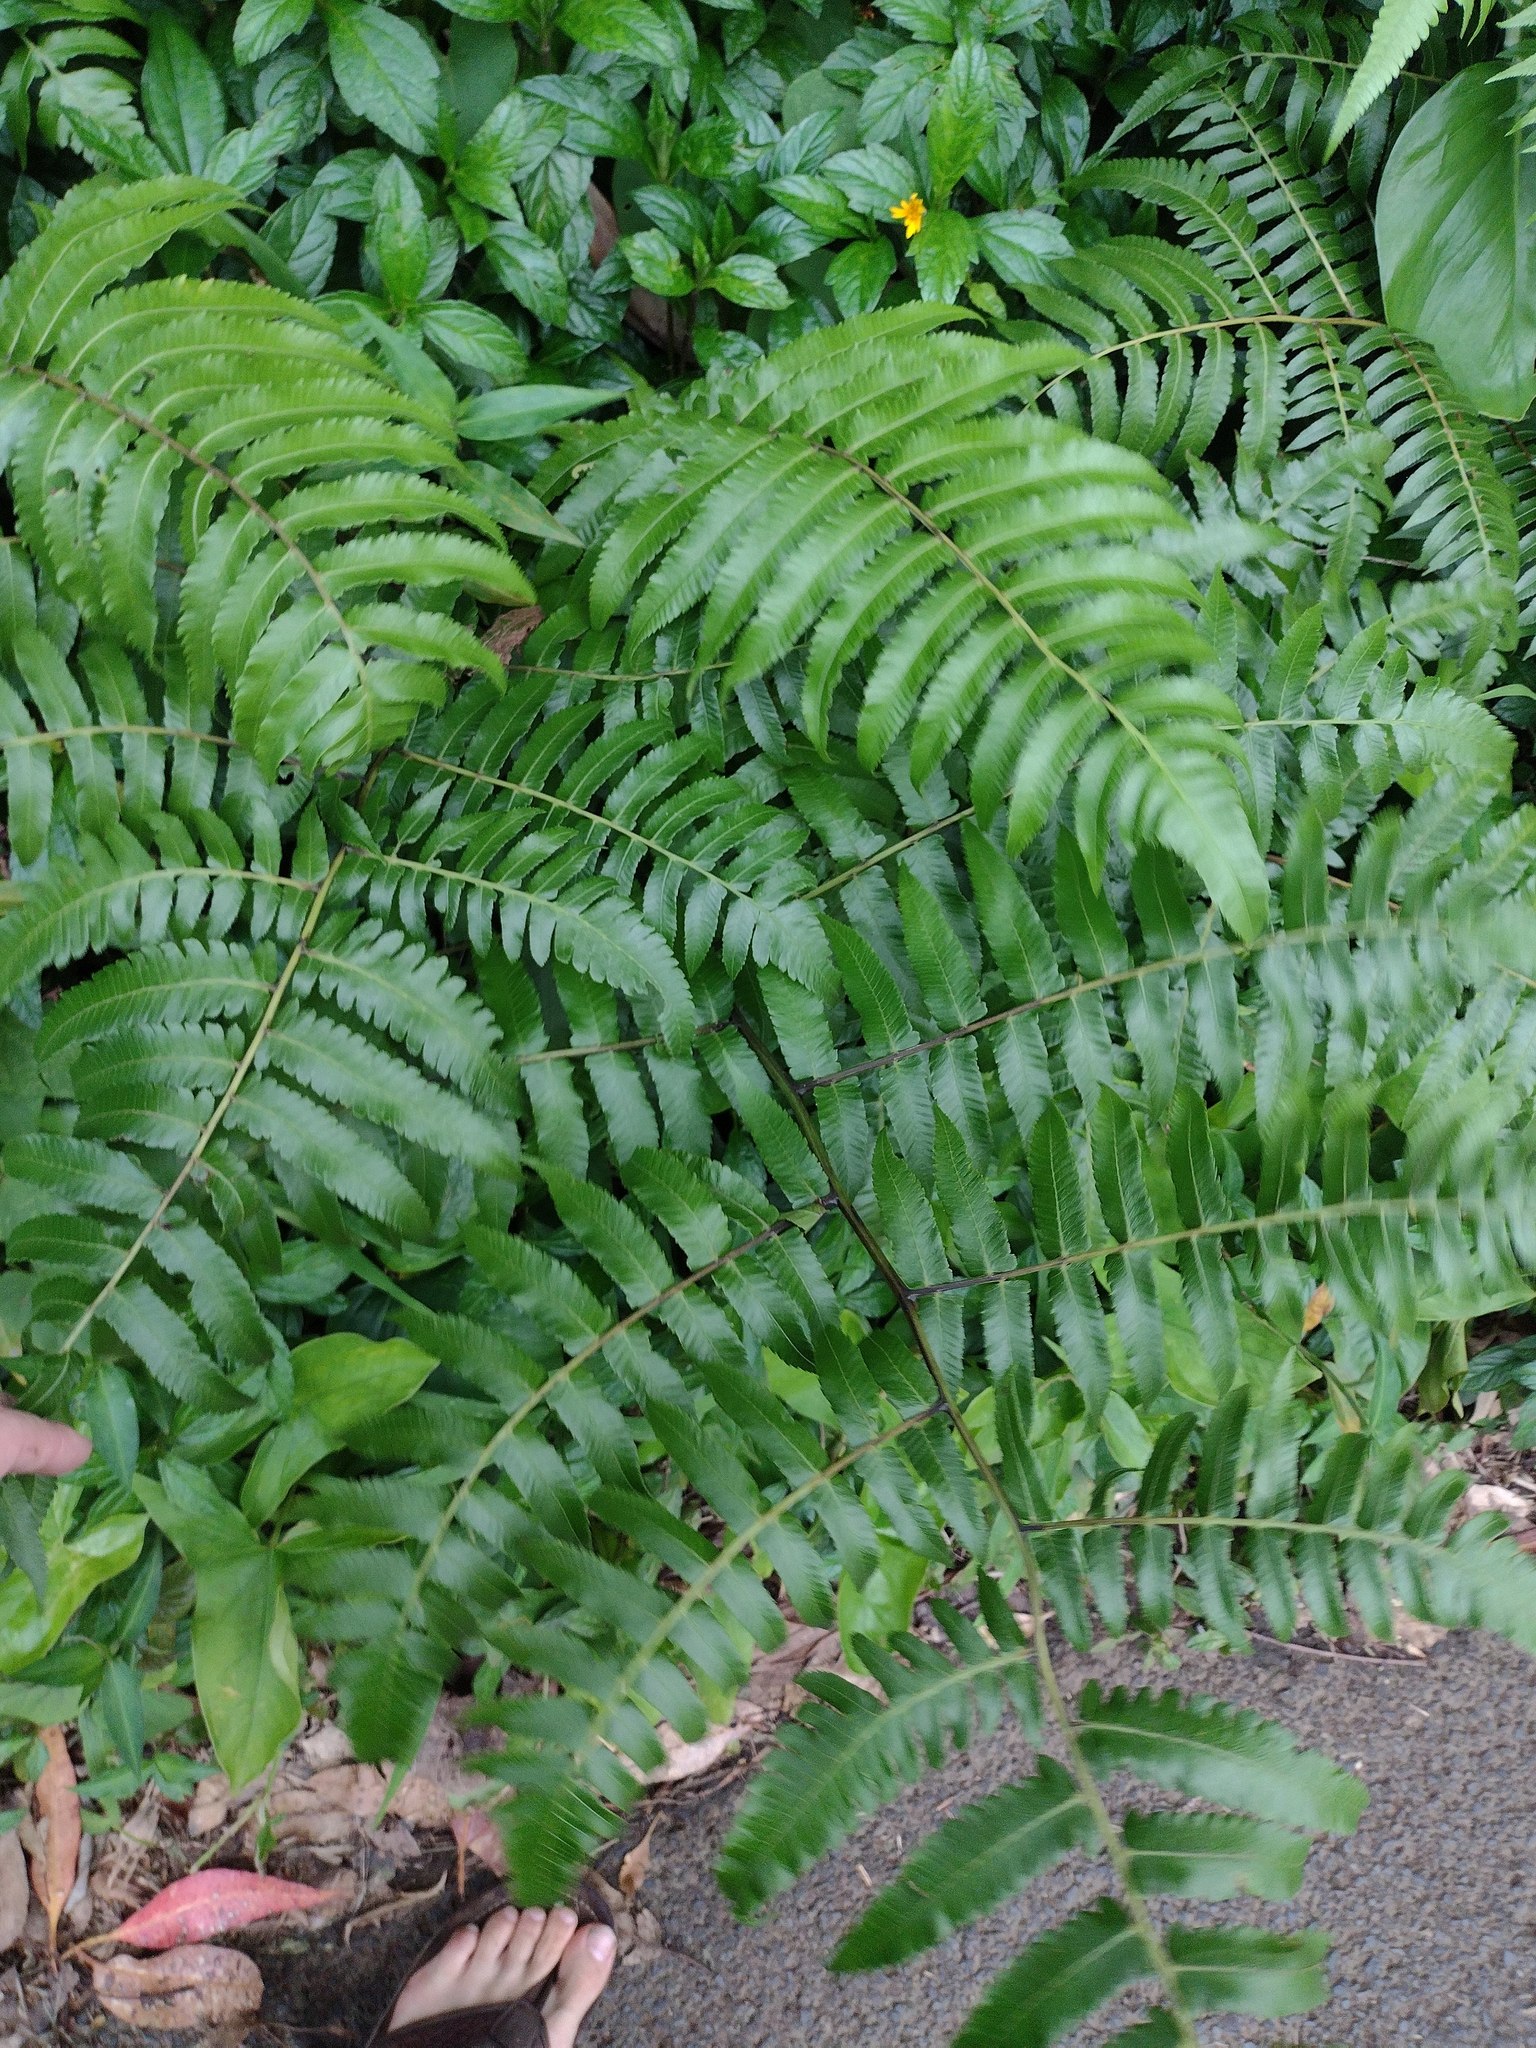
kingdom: Plantae
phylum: Tracheophyta
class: Polypodiopsida
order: Polypodiales
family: Athyriaceae
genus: Diplazium
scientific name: Diplazium esculentum
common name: Vegetable fern
